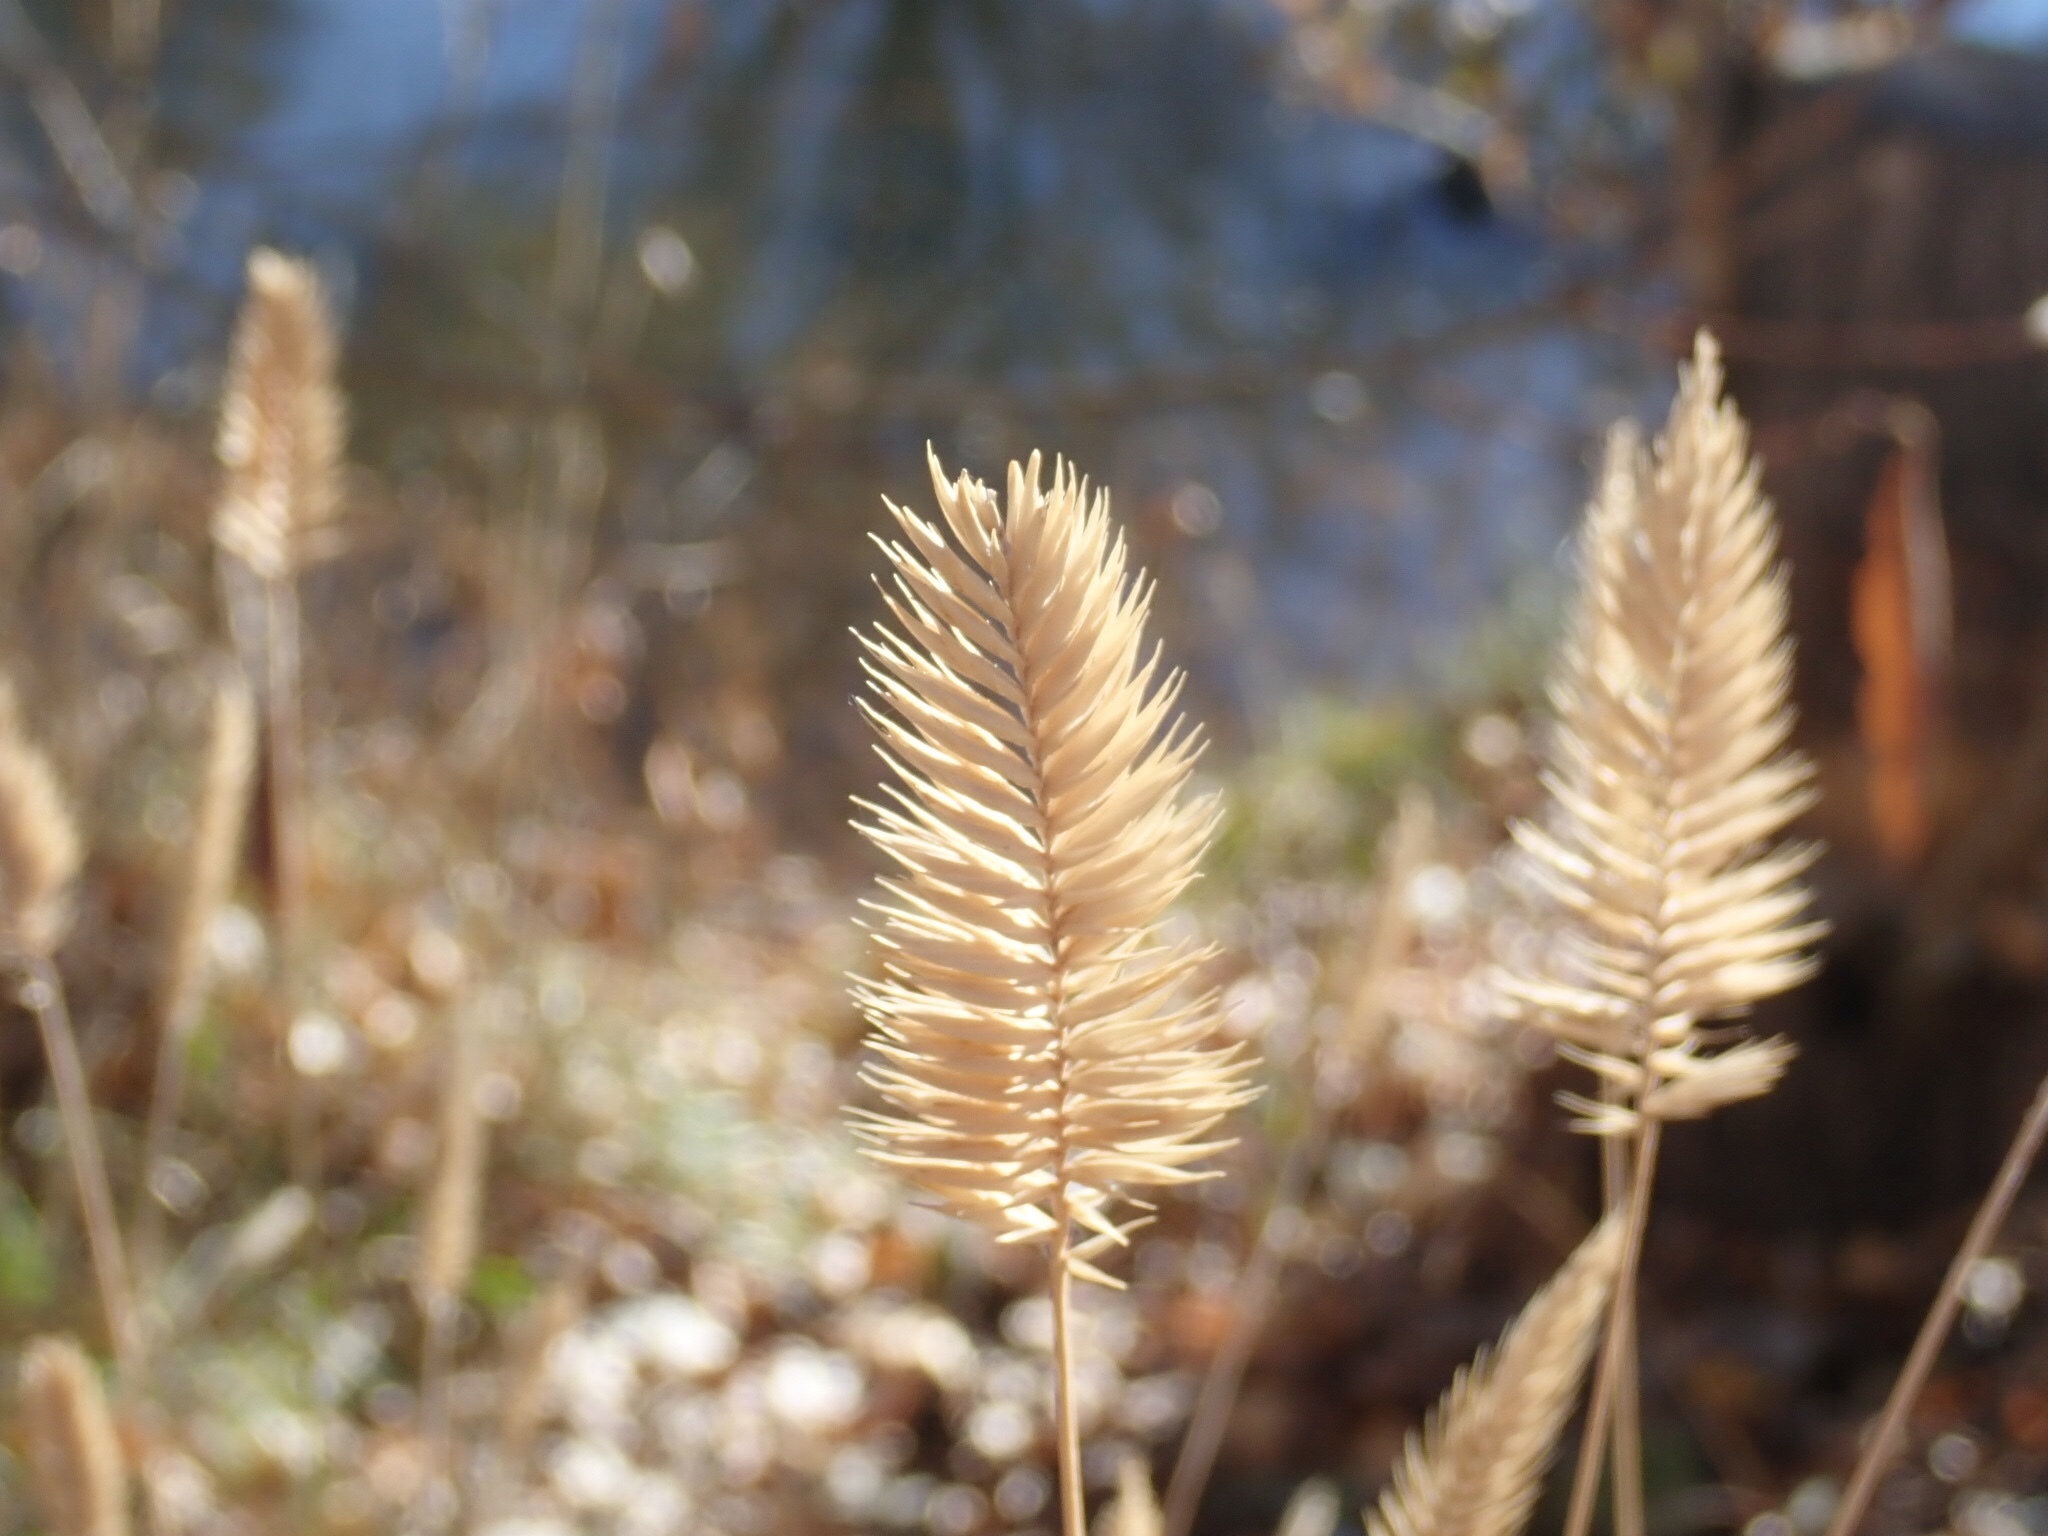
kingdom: Plantae
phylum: Tracheophyta
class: Liliopsida
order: Poales
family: Poaceae
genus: Agropyron
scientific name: Agropyron cristatum
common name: Crested wheatgrass
